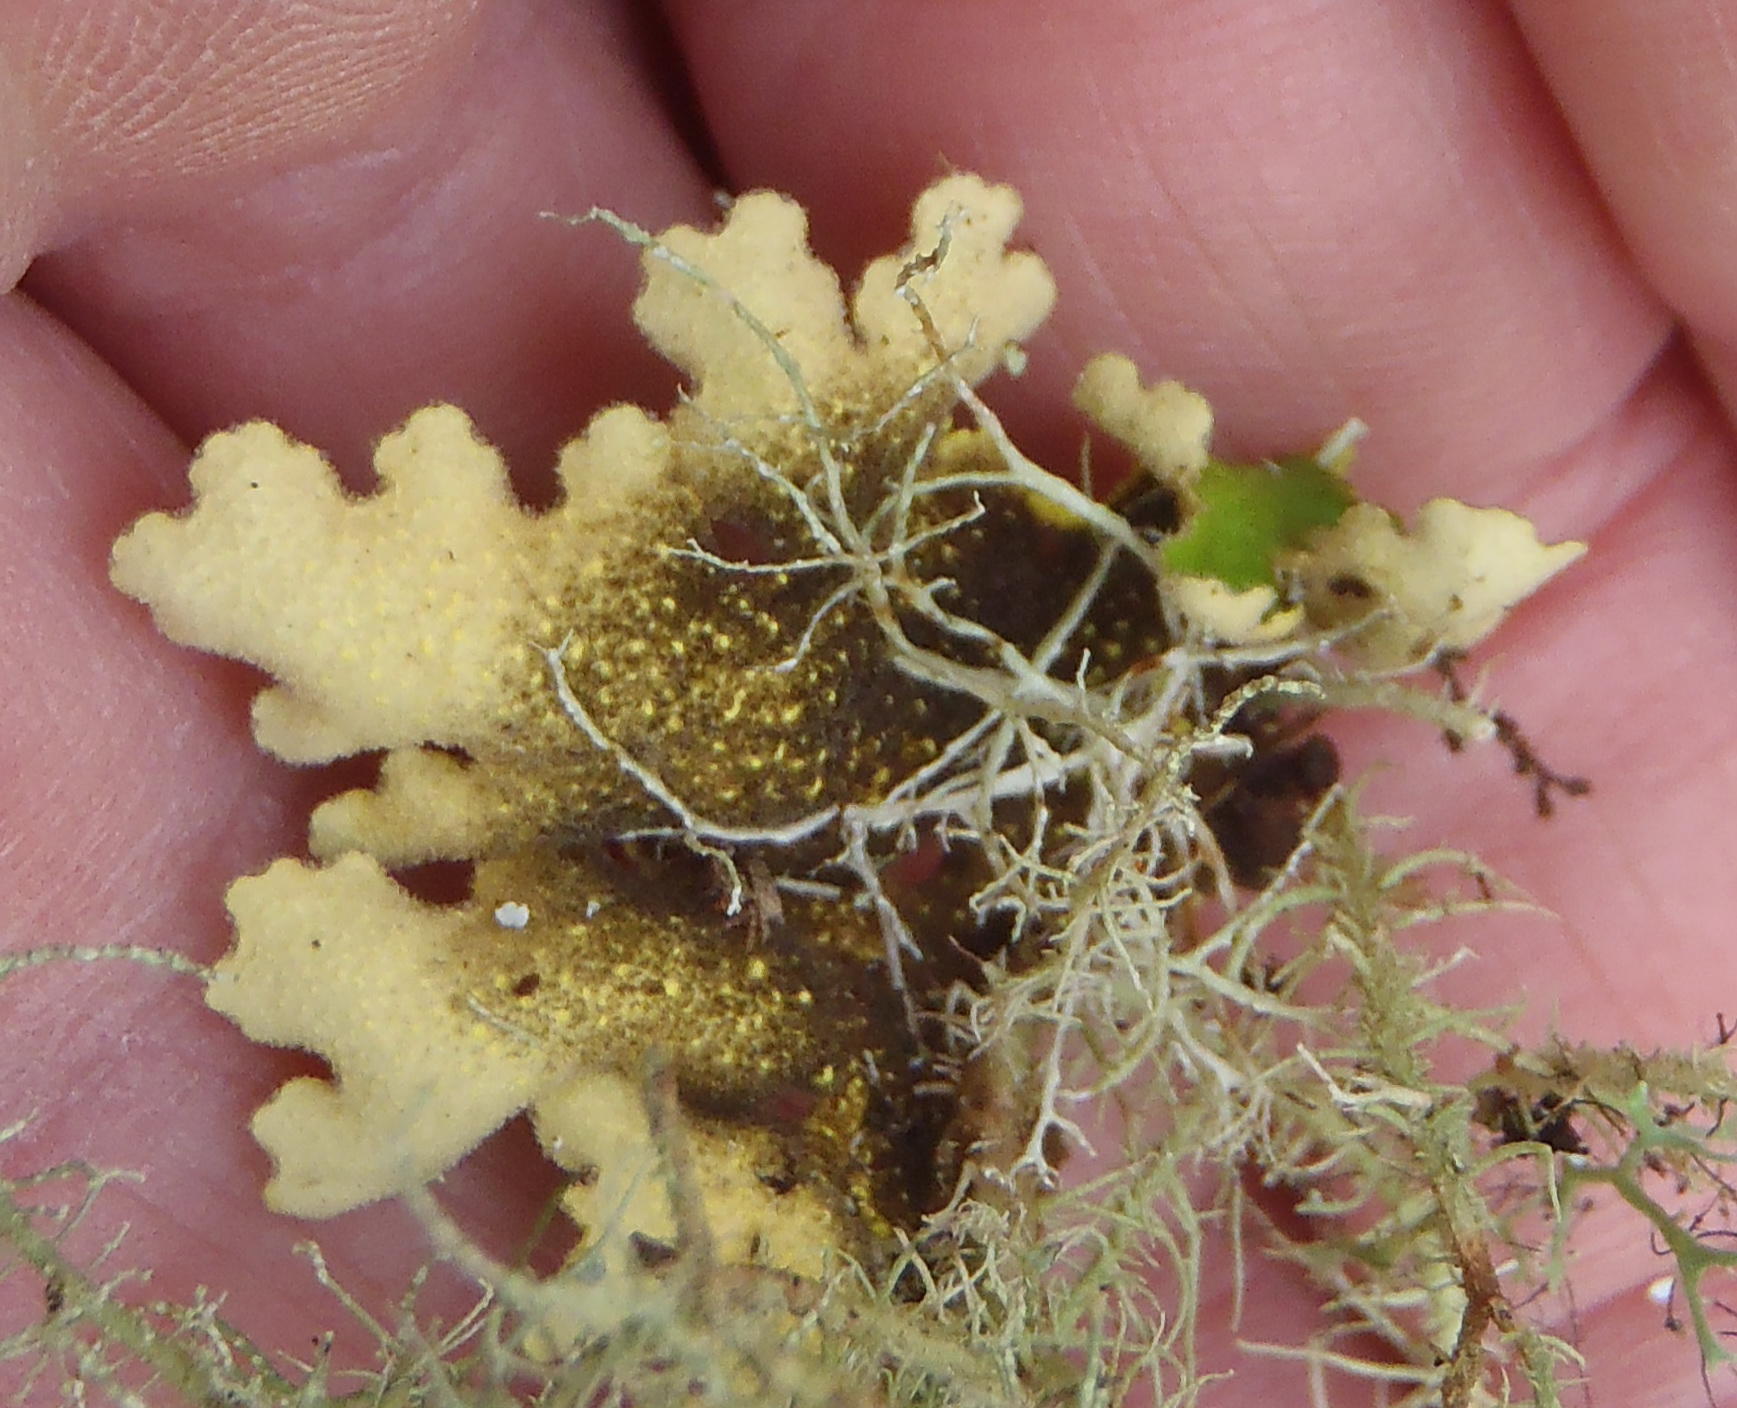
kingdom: Fungi
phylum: Ascomycota
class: Lecanoromycetes
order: Peltigerales
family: Lobariaceae
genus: Pseudocyphellaria
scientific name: Pseudocyphellaria aurata
